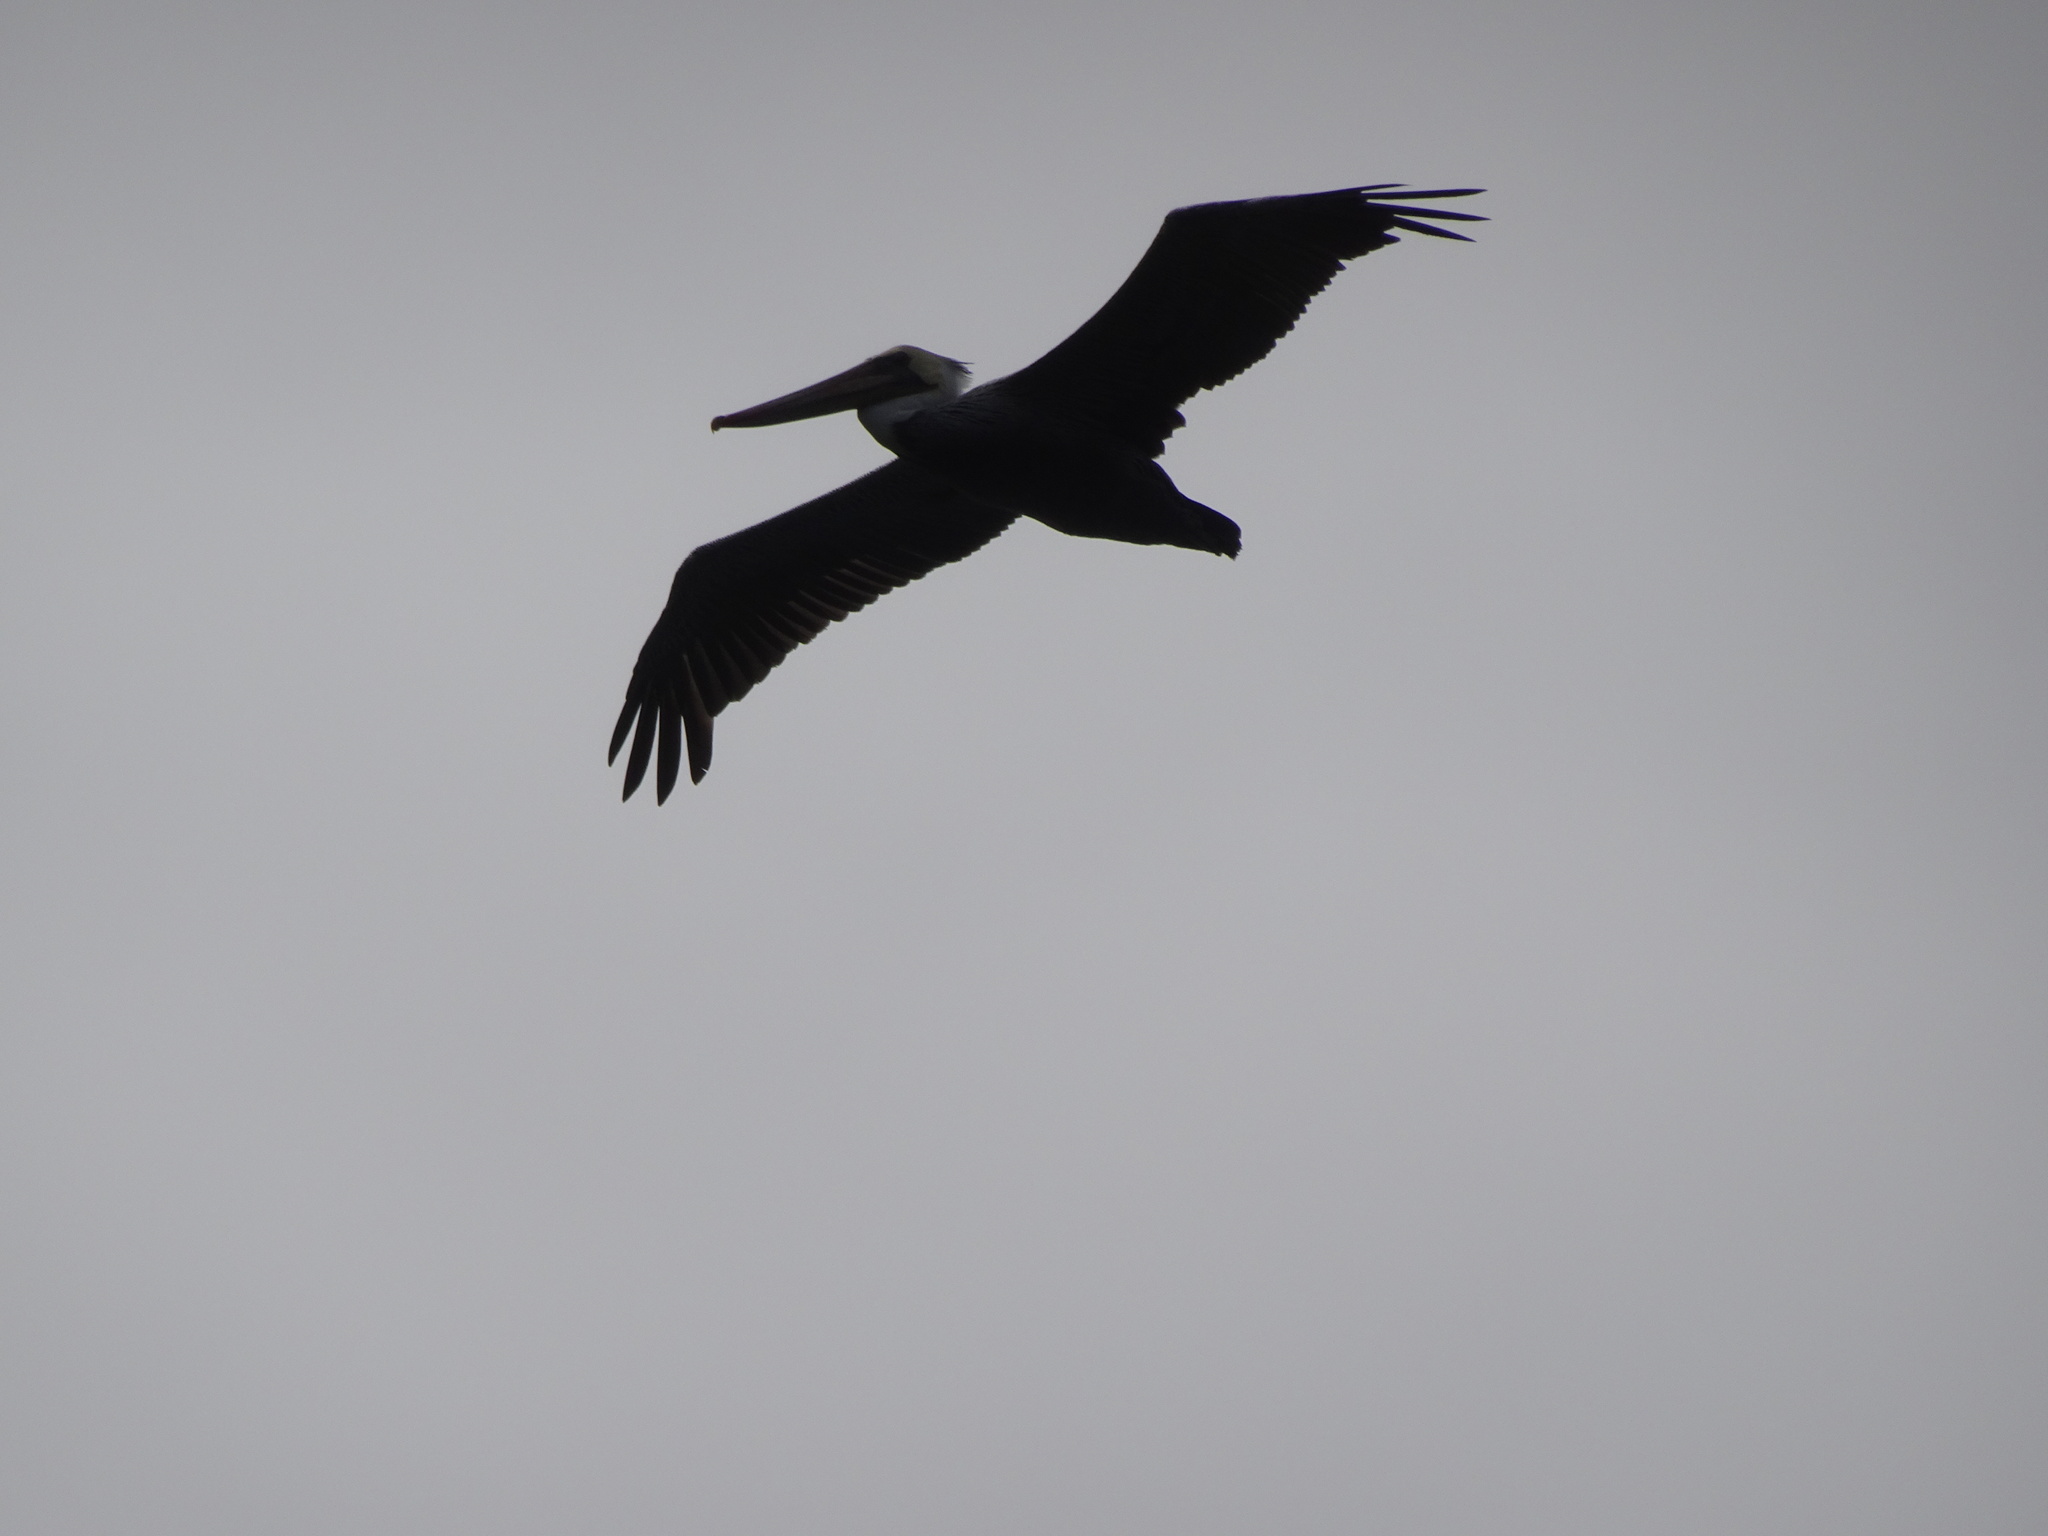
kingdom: Animalia
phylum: Chordata
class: Aves
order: Pelecaniformes
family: Pelecanidae
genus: Pelecanus
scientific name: Pelecanus occidentalis
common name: Brown pelican
